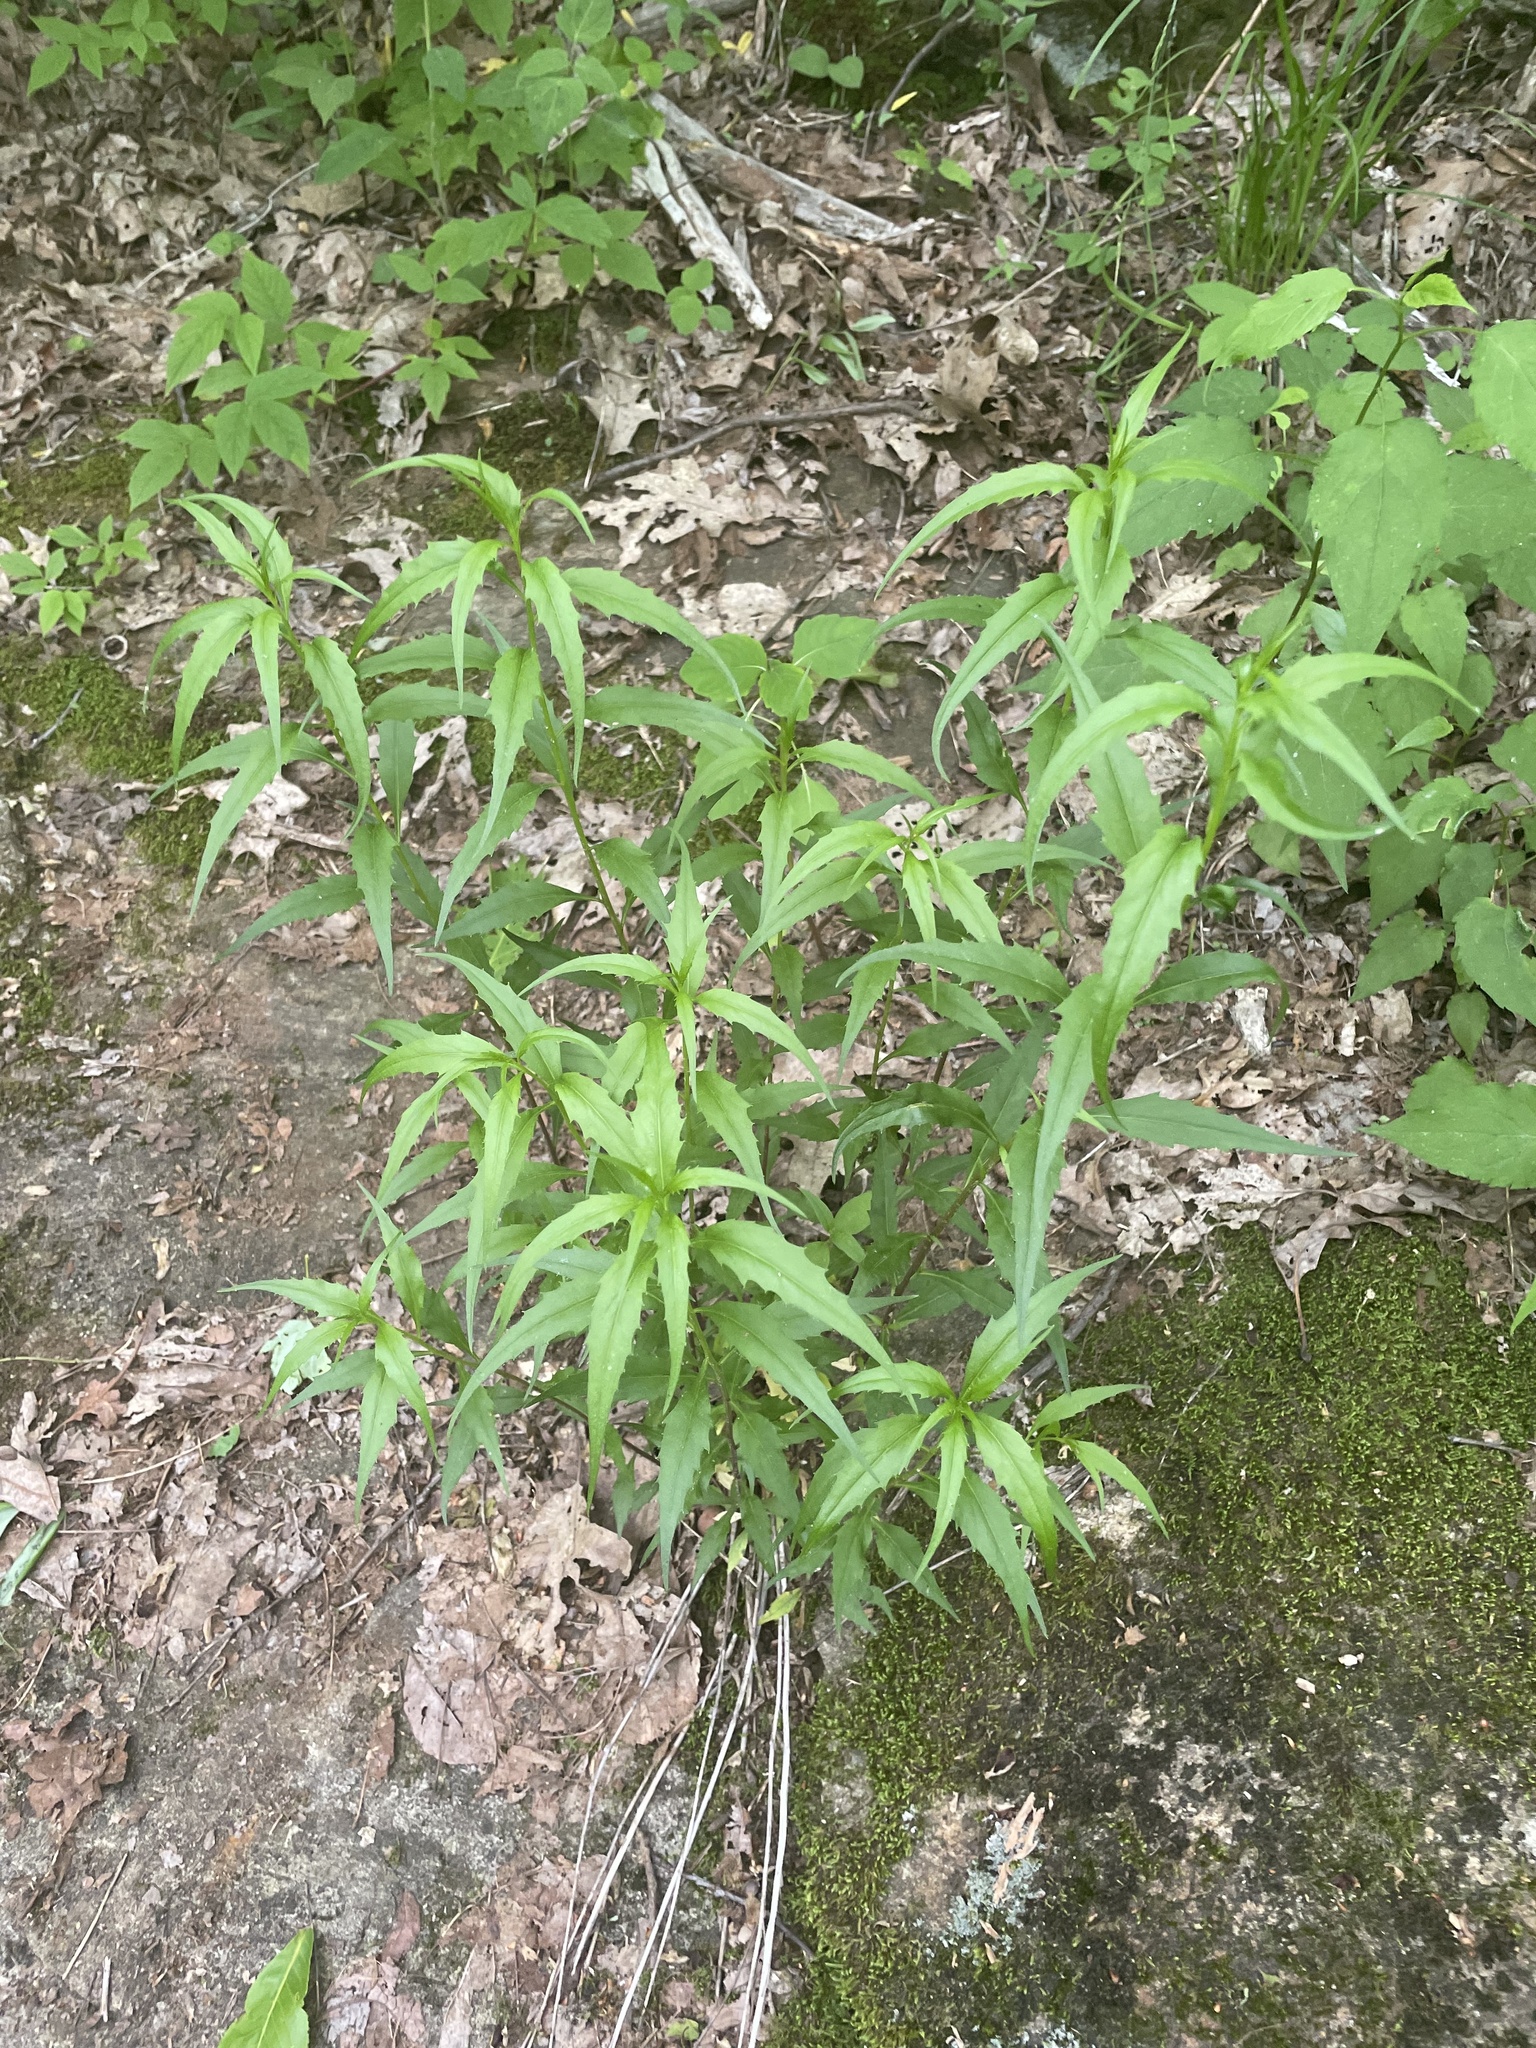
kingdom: Plantae
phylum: Tracheophyta
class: Magnoliopsida
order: Asterales
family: Campanulaceae
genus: Campanula
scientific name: Campanula divaricata
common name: Appalachian bellflower
